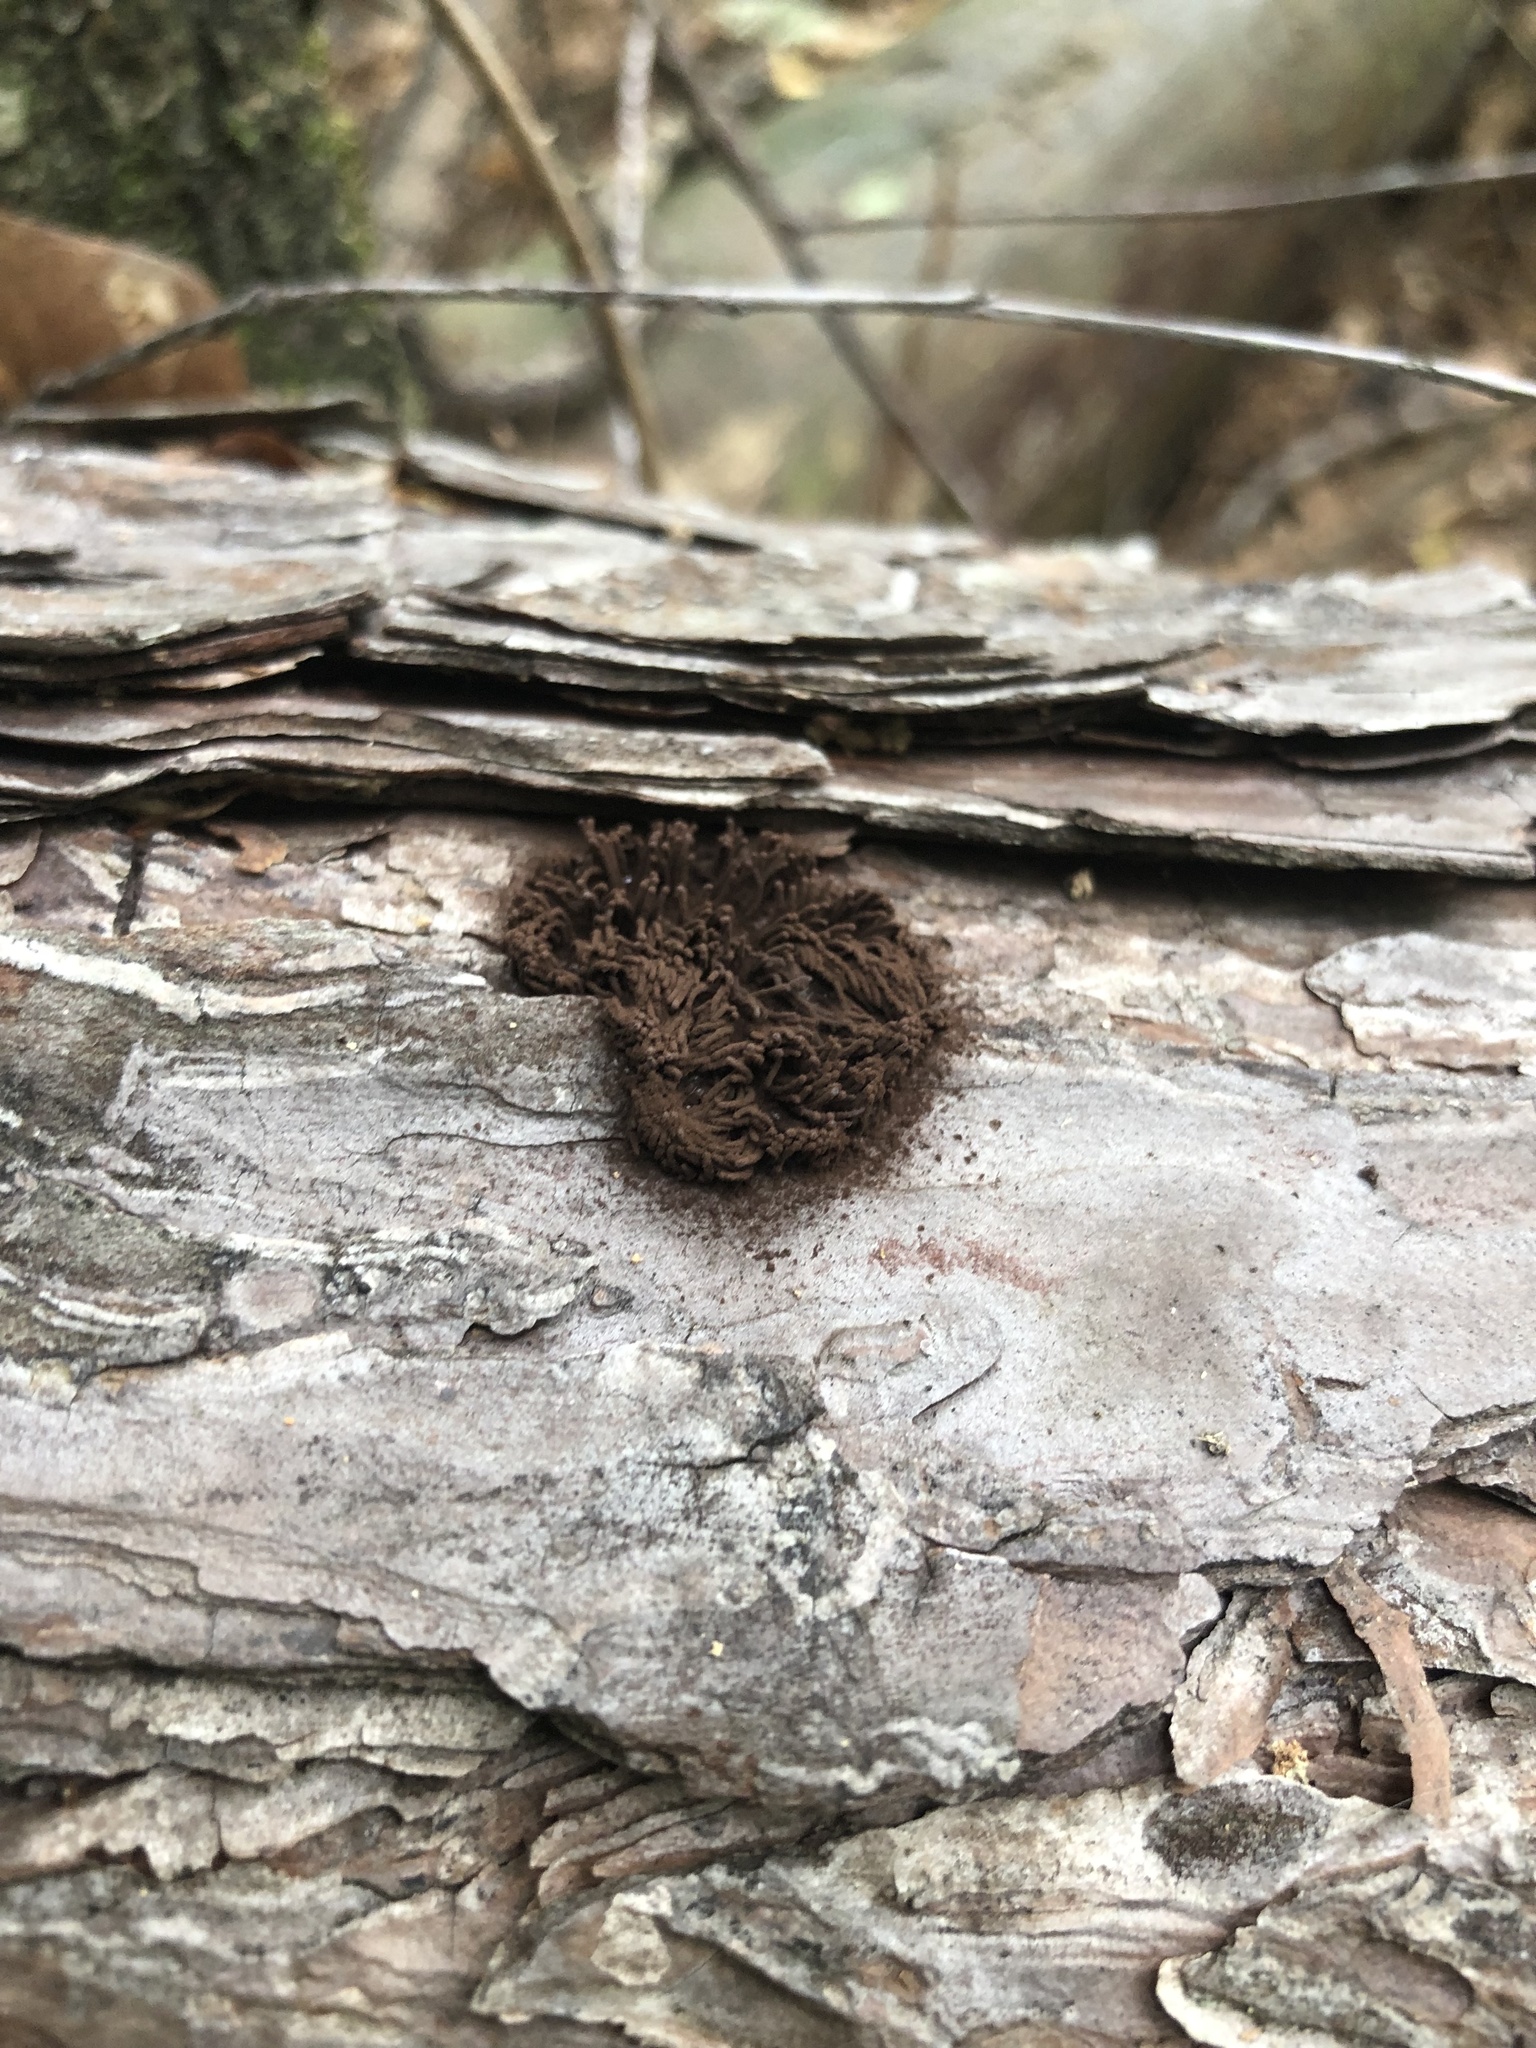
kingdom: Protozoa
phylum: Mycetozoa
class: Myxomycetes
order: Stemonitidales
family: Stemonitidaceae
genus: Stemonitis
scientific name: Stemonitis splendens
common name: Chocolate tube slime
